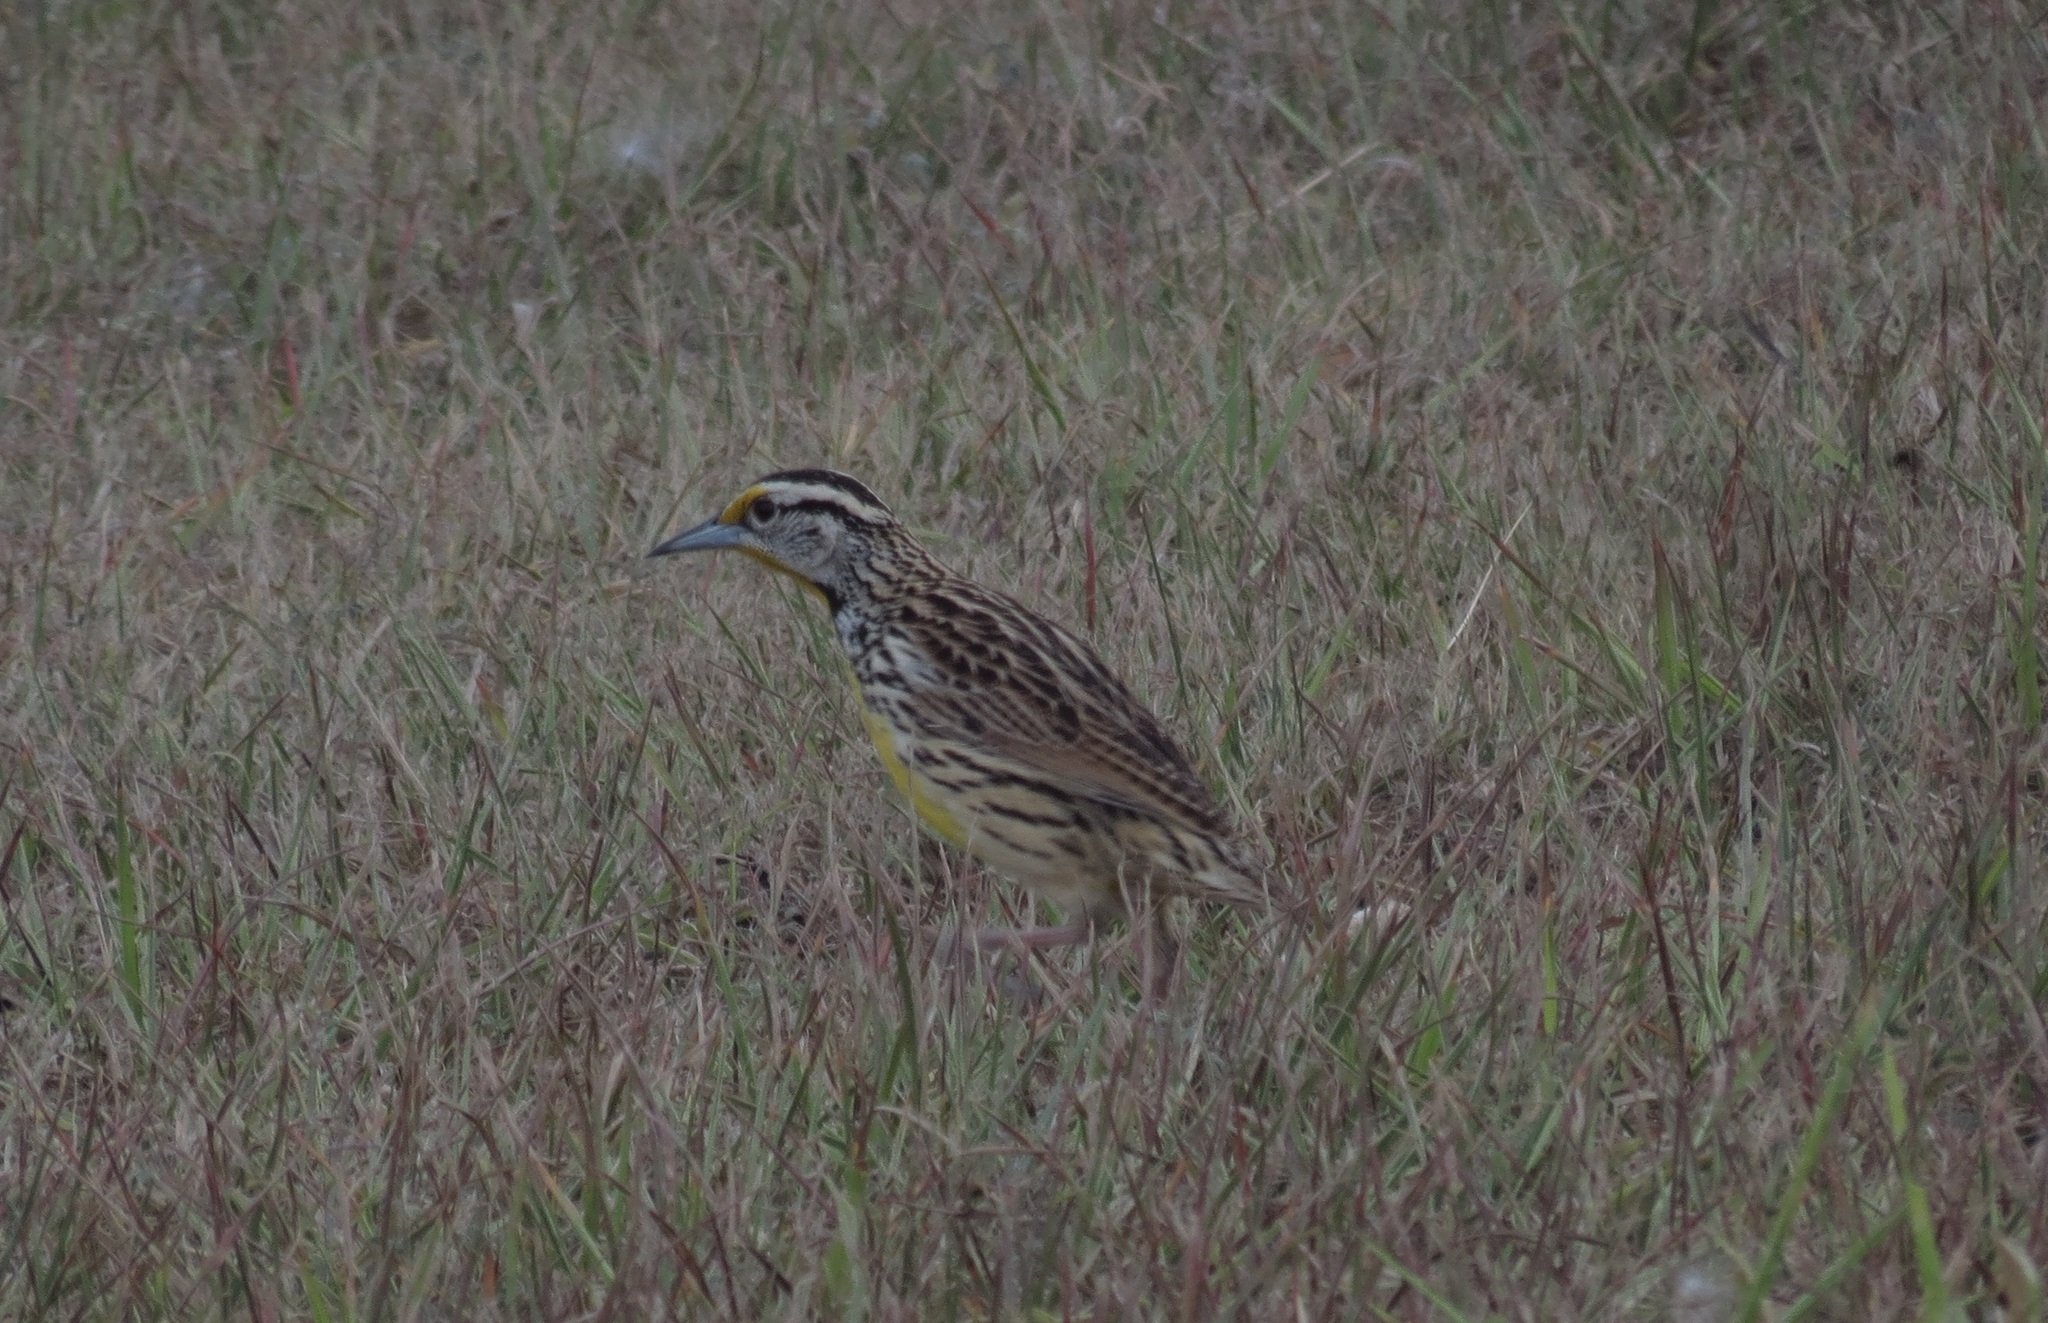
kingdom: Animalia
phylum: Chordata
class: Aves
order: Passeriformes
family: Icteridae
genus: Sturnella
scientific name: Sturnella magna
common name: Eastern meadowlark
